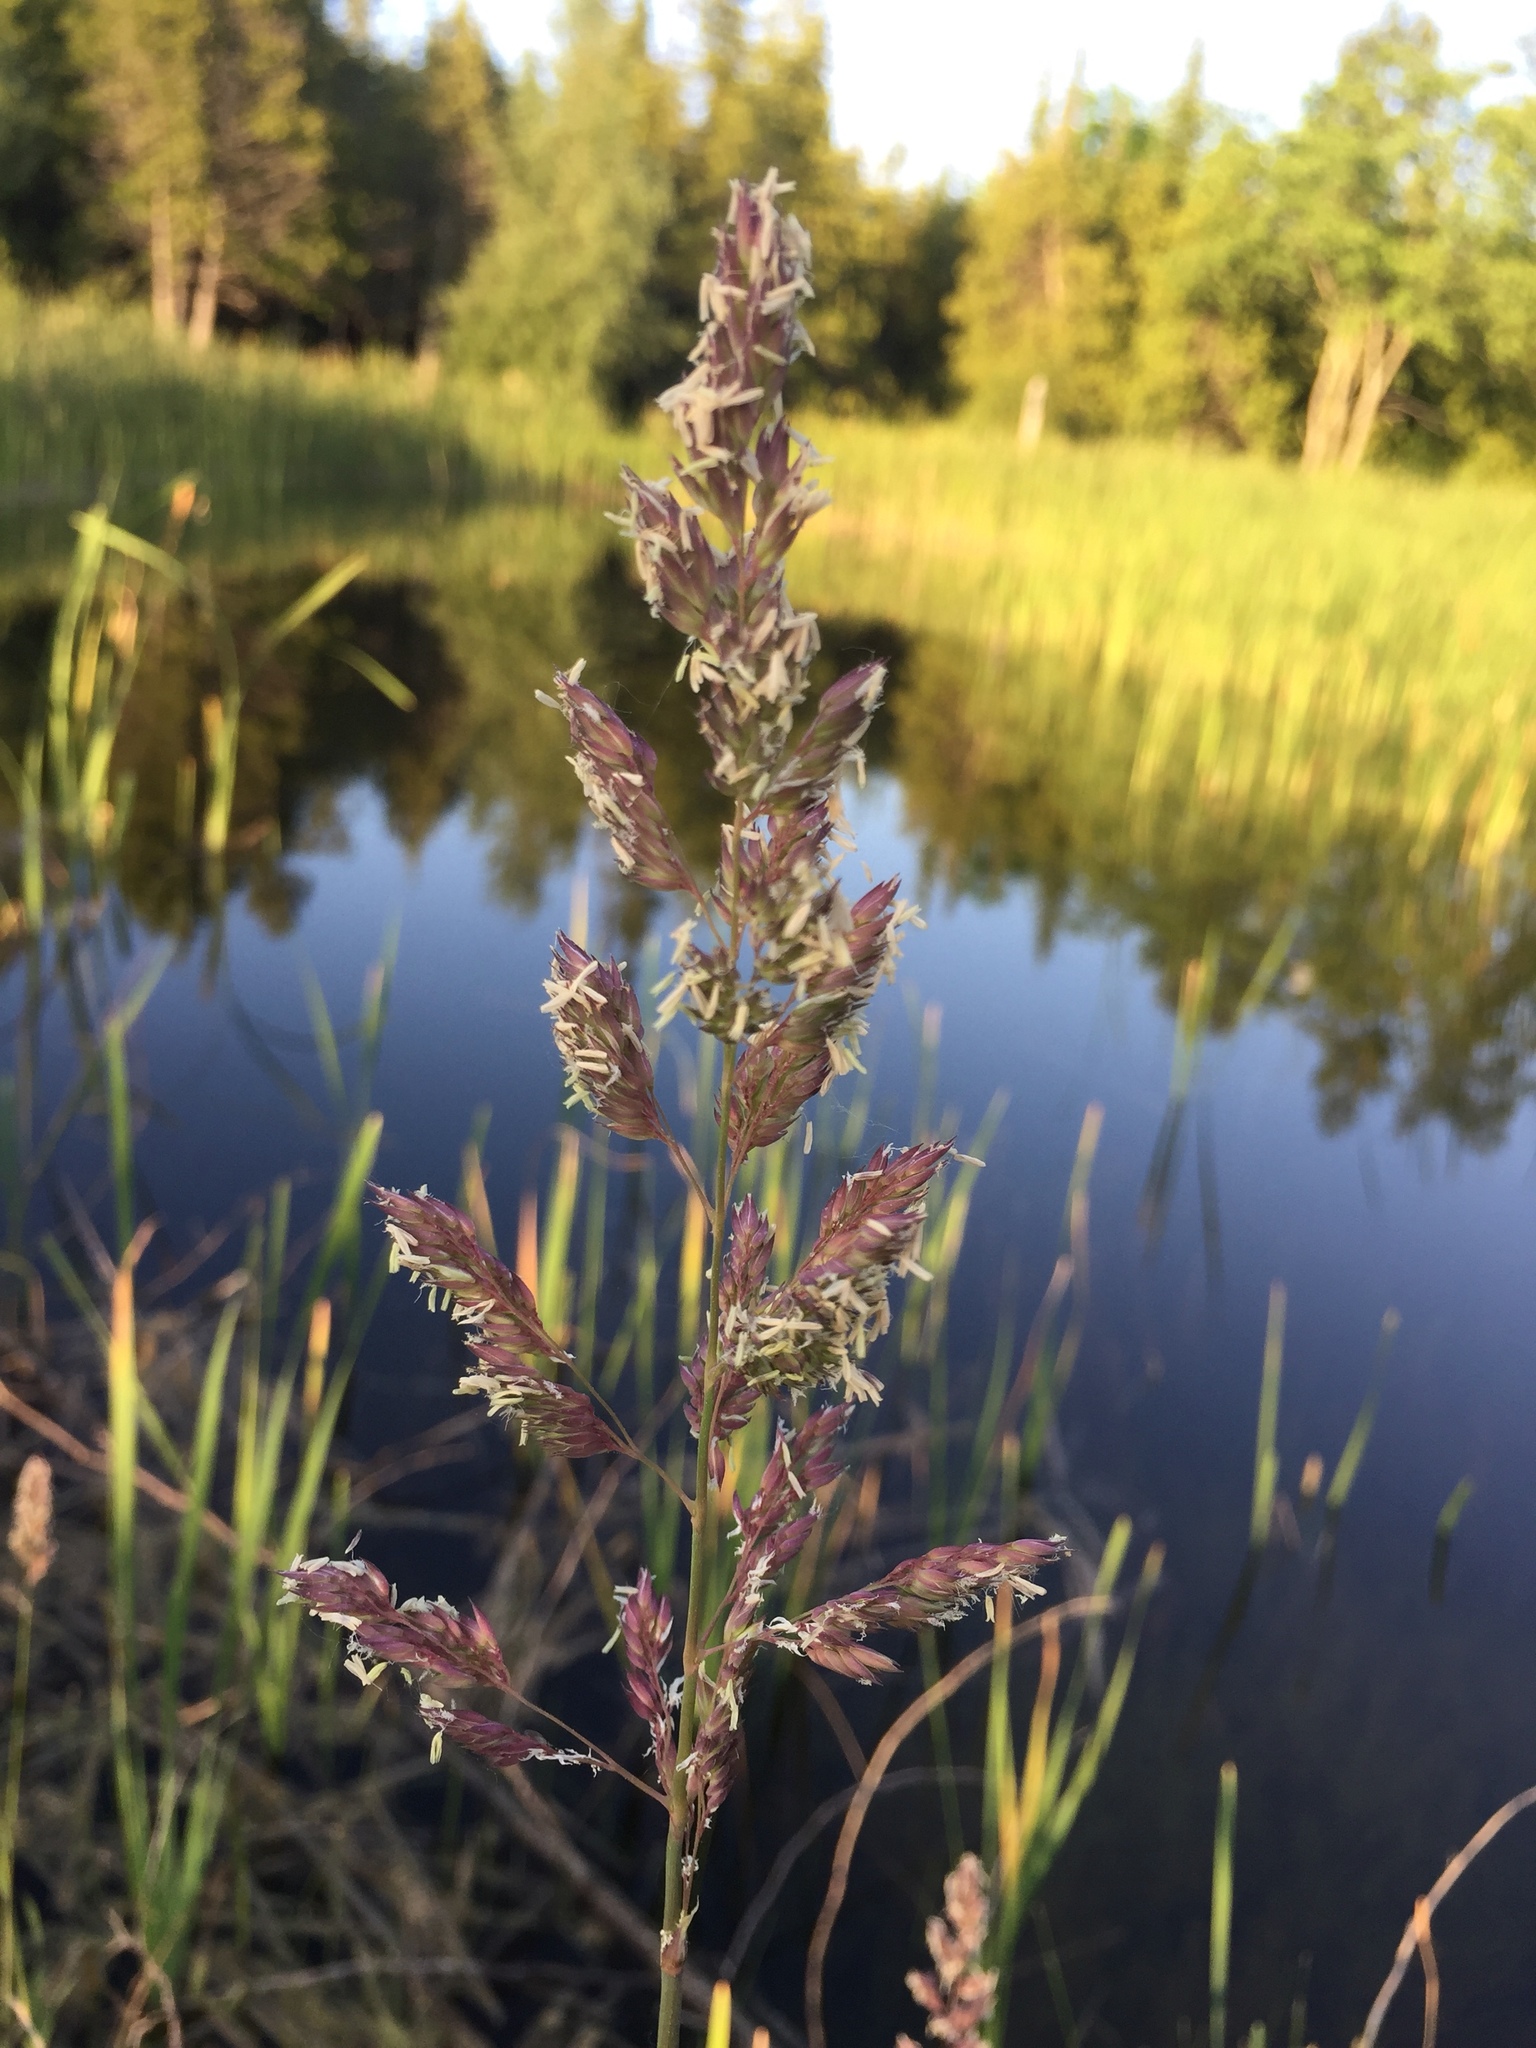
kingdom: Plantae
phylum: Tracheophyta
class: Liliopsida
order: Poales
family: Poaceae
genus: Dactylis
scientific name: Dactylis glomerata
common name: Orchardgrass
